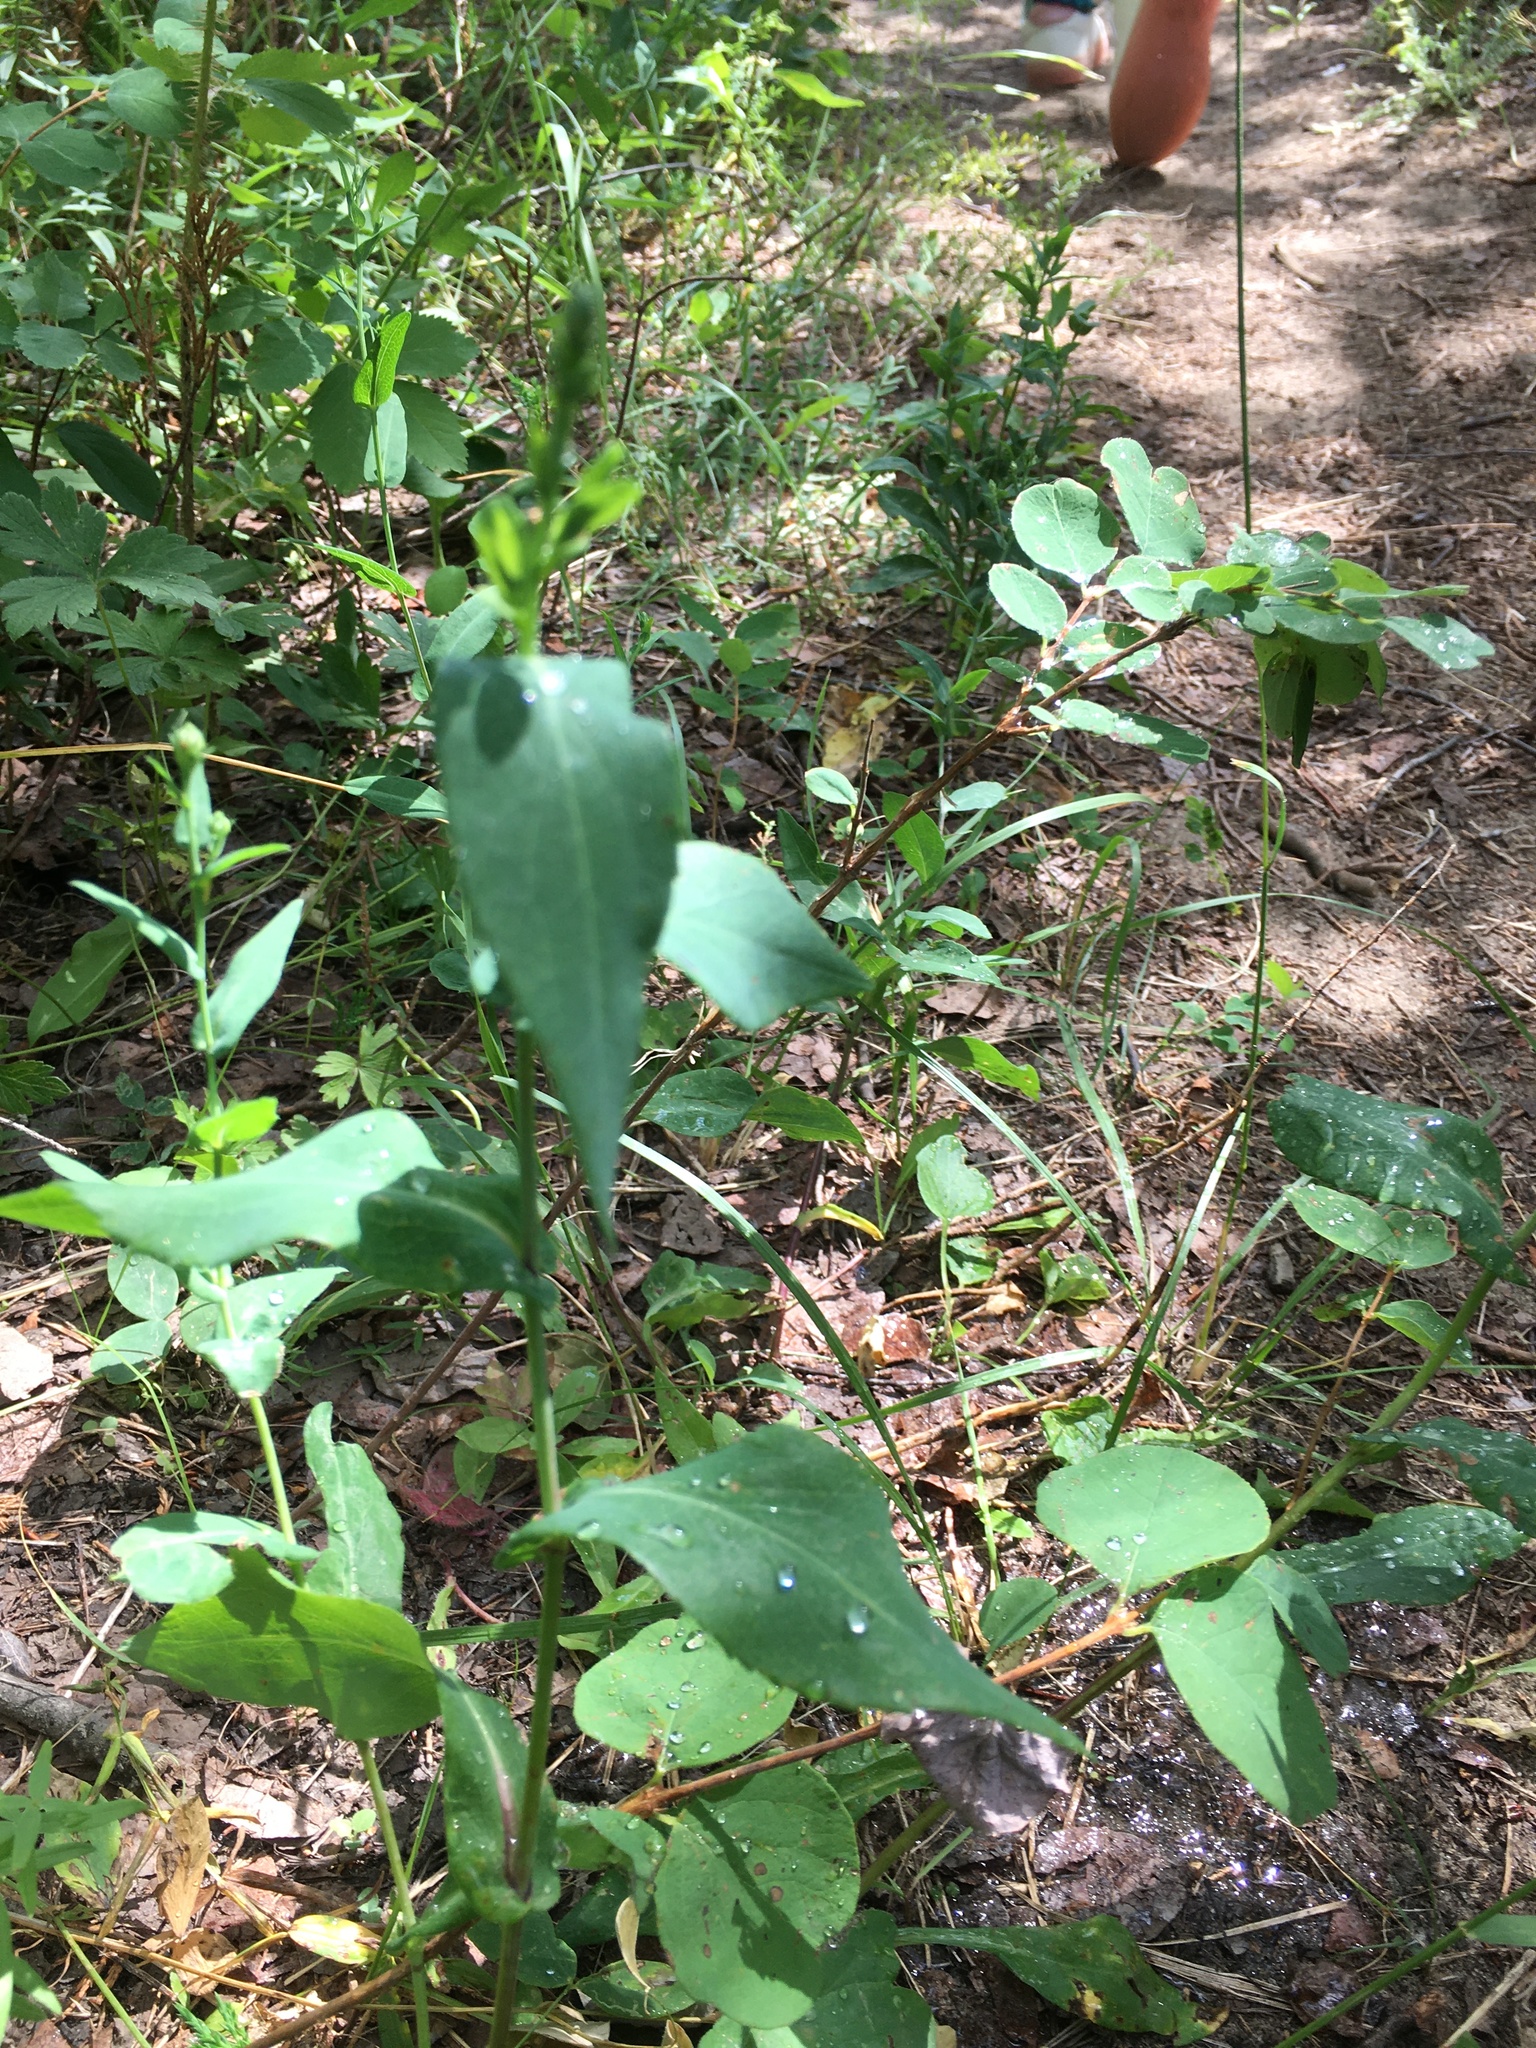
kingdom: Plantae
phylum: Tracheophyta
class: Magnoliopsida
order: Asterales
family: Asteraceae
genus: Symphyotrichum
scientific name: Symphyotrichum laeve
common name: Glaucous aster
